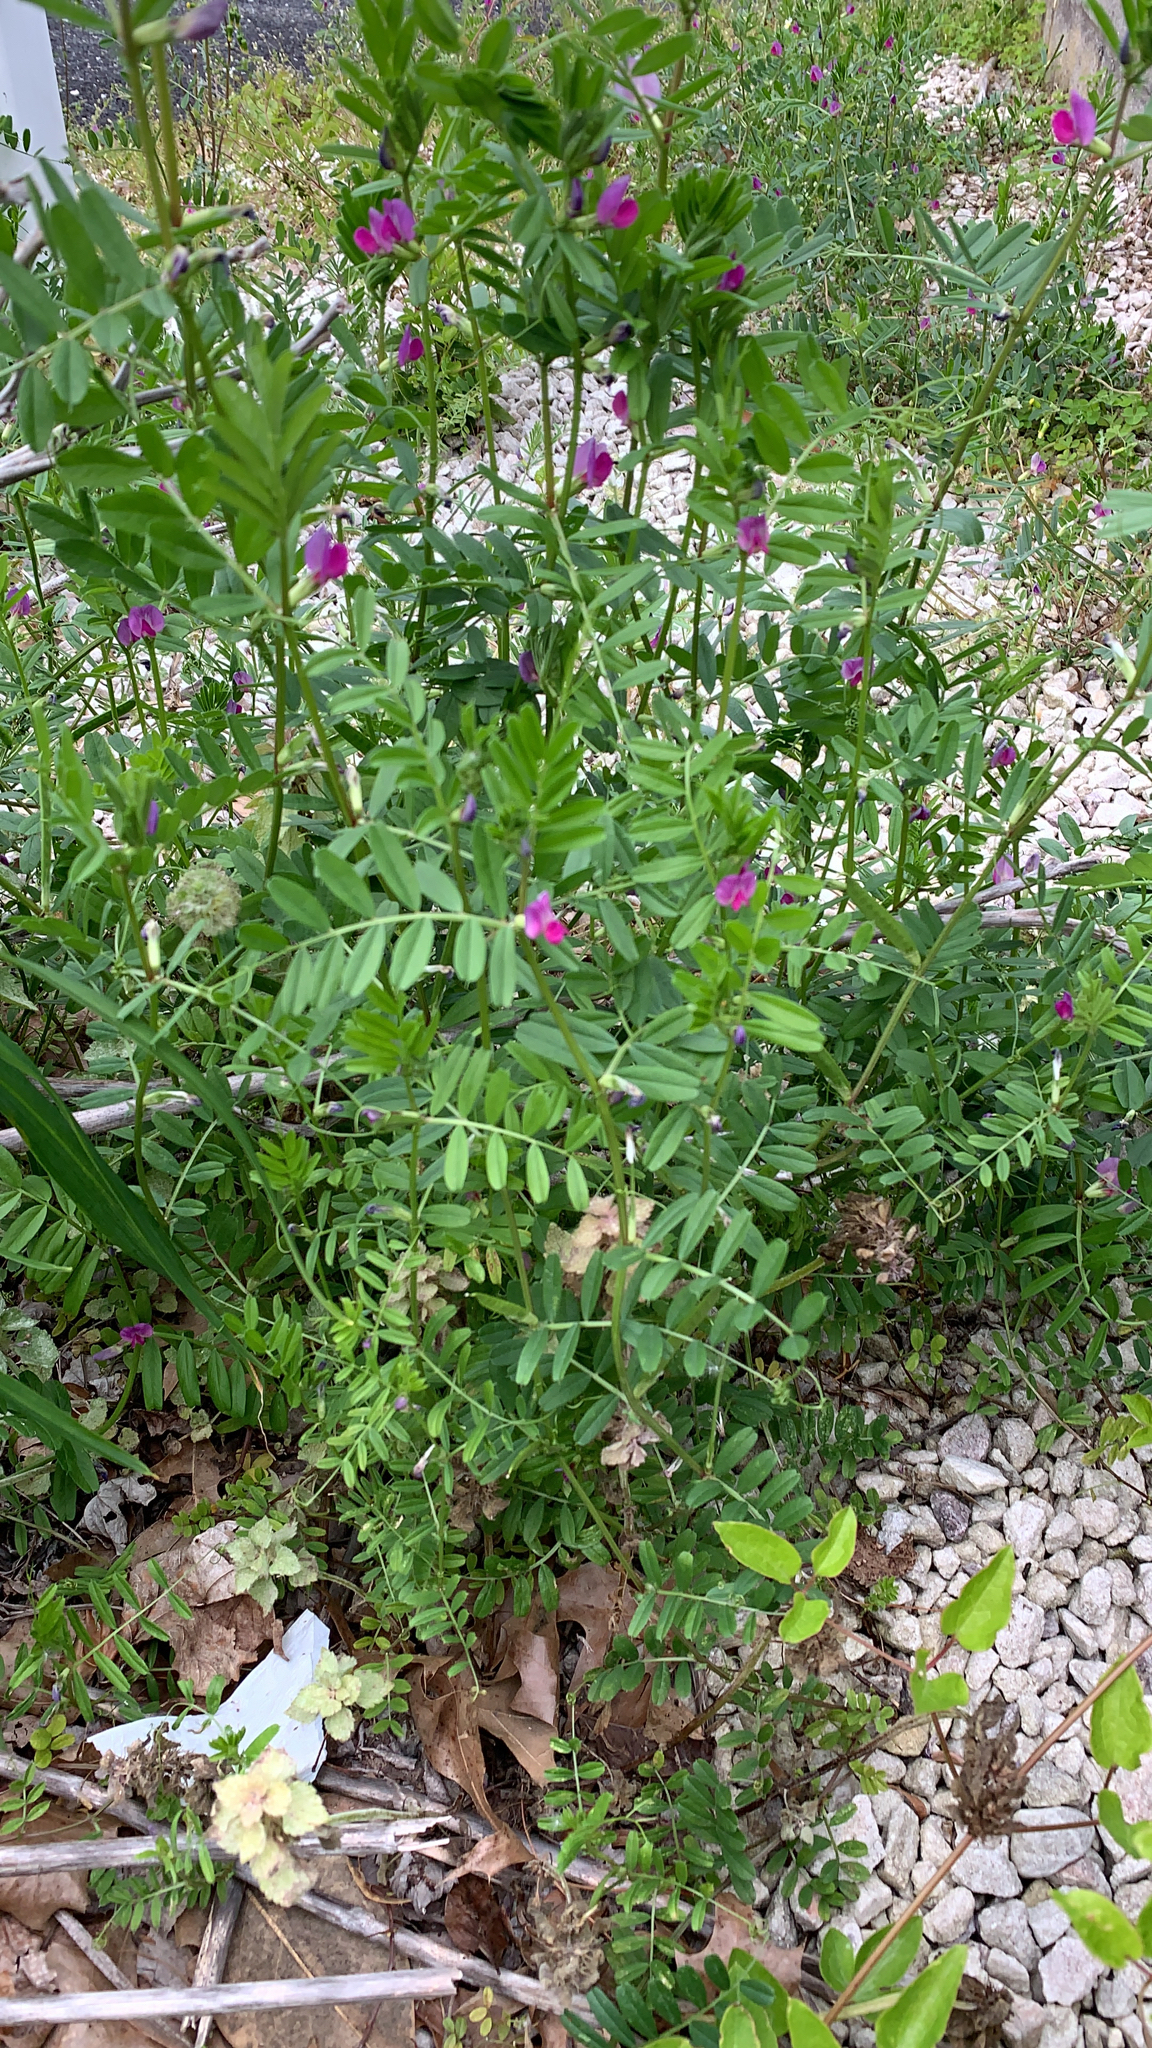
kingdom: Plantae
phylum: Tracheophyta
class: Magnoliopsida
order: Fabales
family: Fabaceae
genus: Vicia
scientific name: Vicia sativa
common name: Garden vetch
